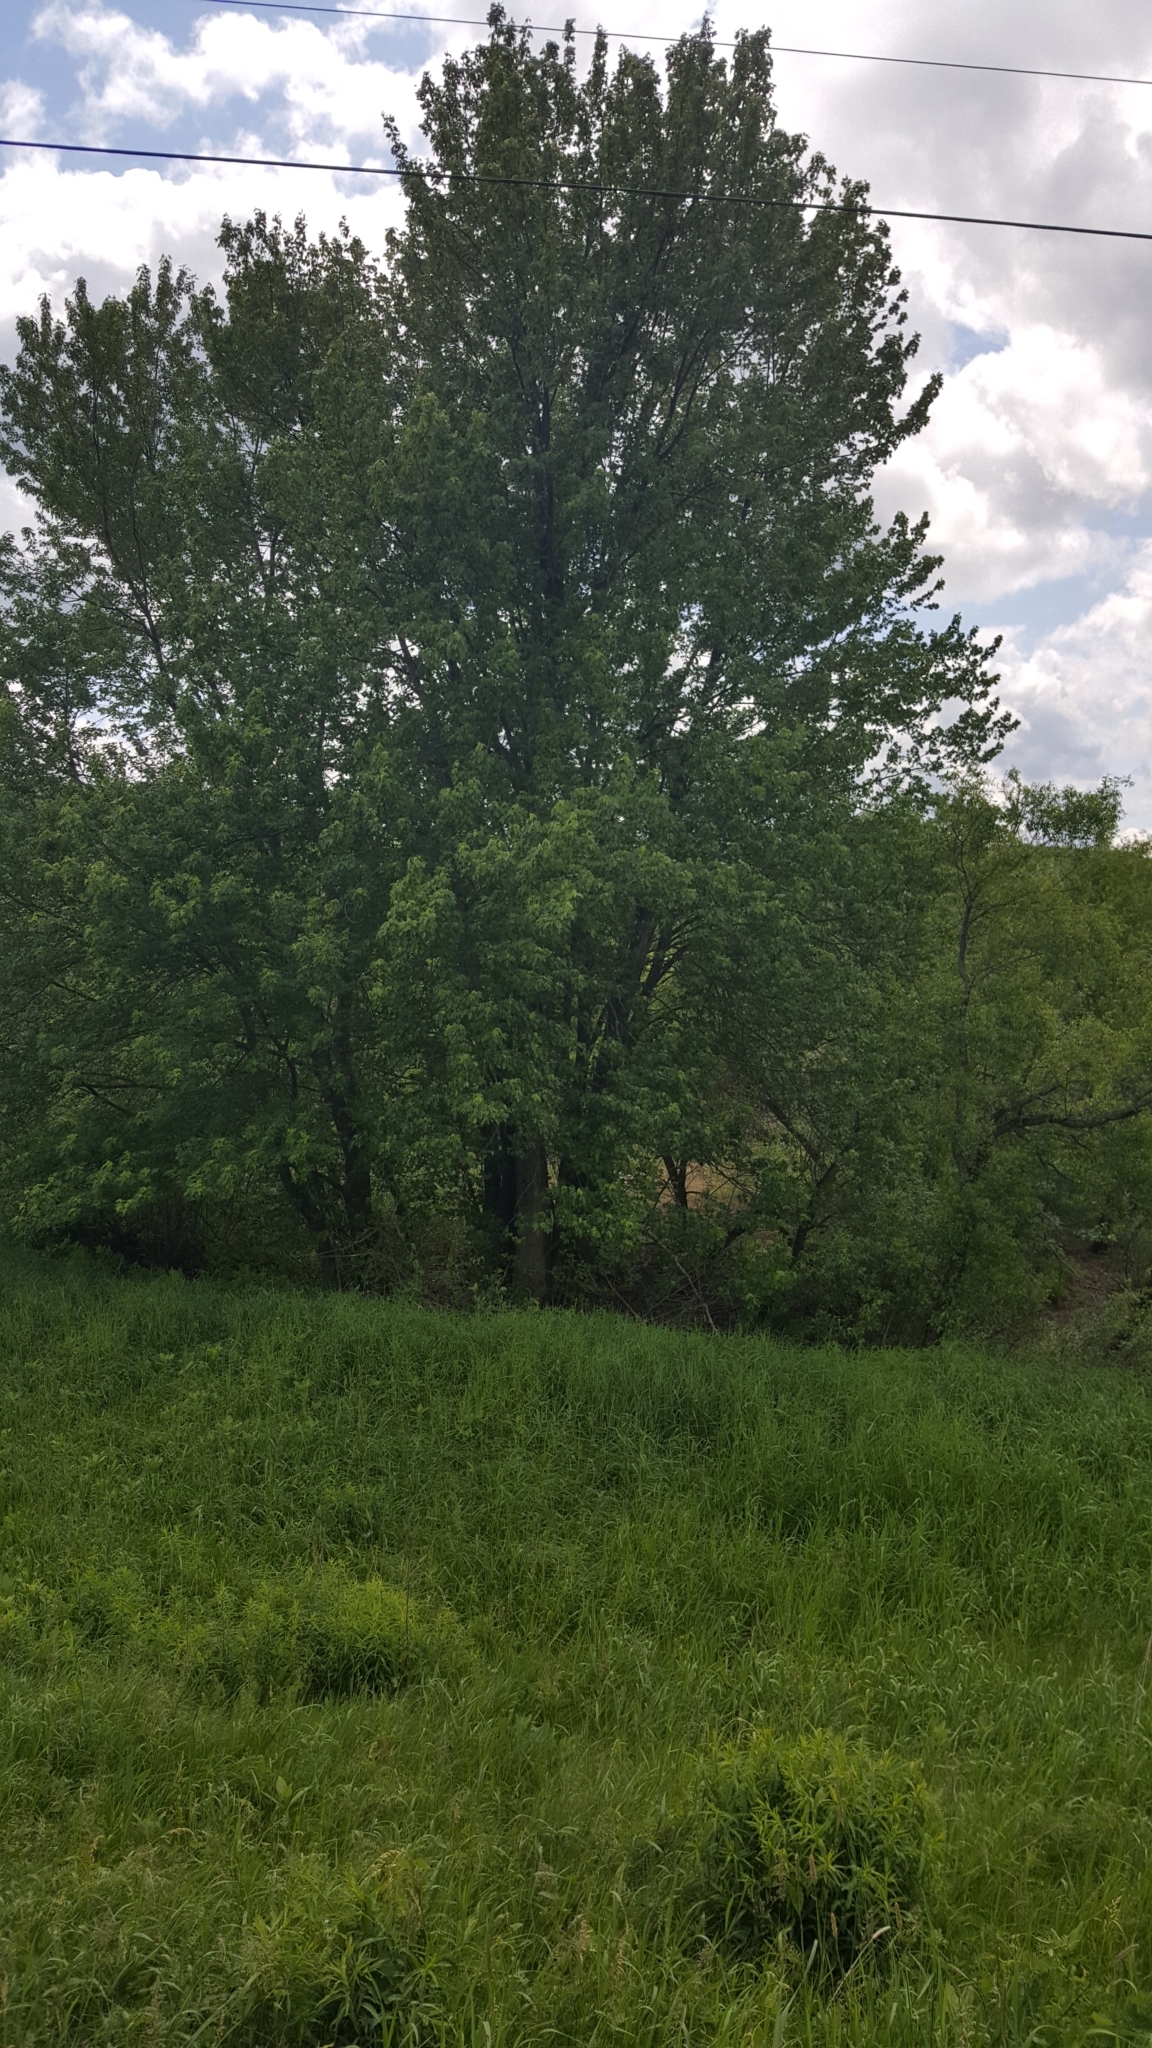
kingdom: Plantae
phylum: Tracheophyta
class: Magnoliopsida
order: Sapindales
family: Sapindaceae
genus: Acer
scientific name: Acer saccharinum
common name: Silver maple
